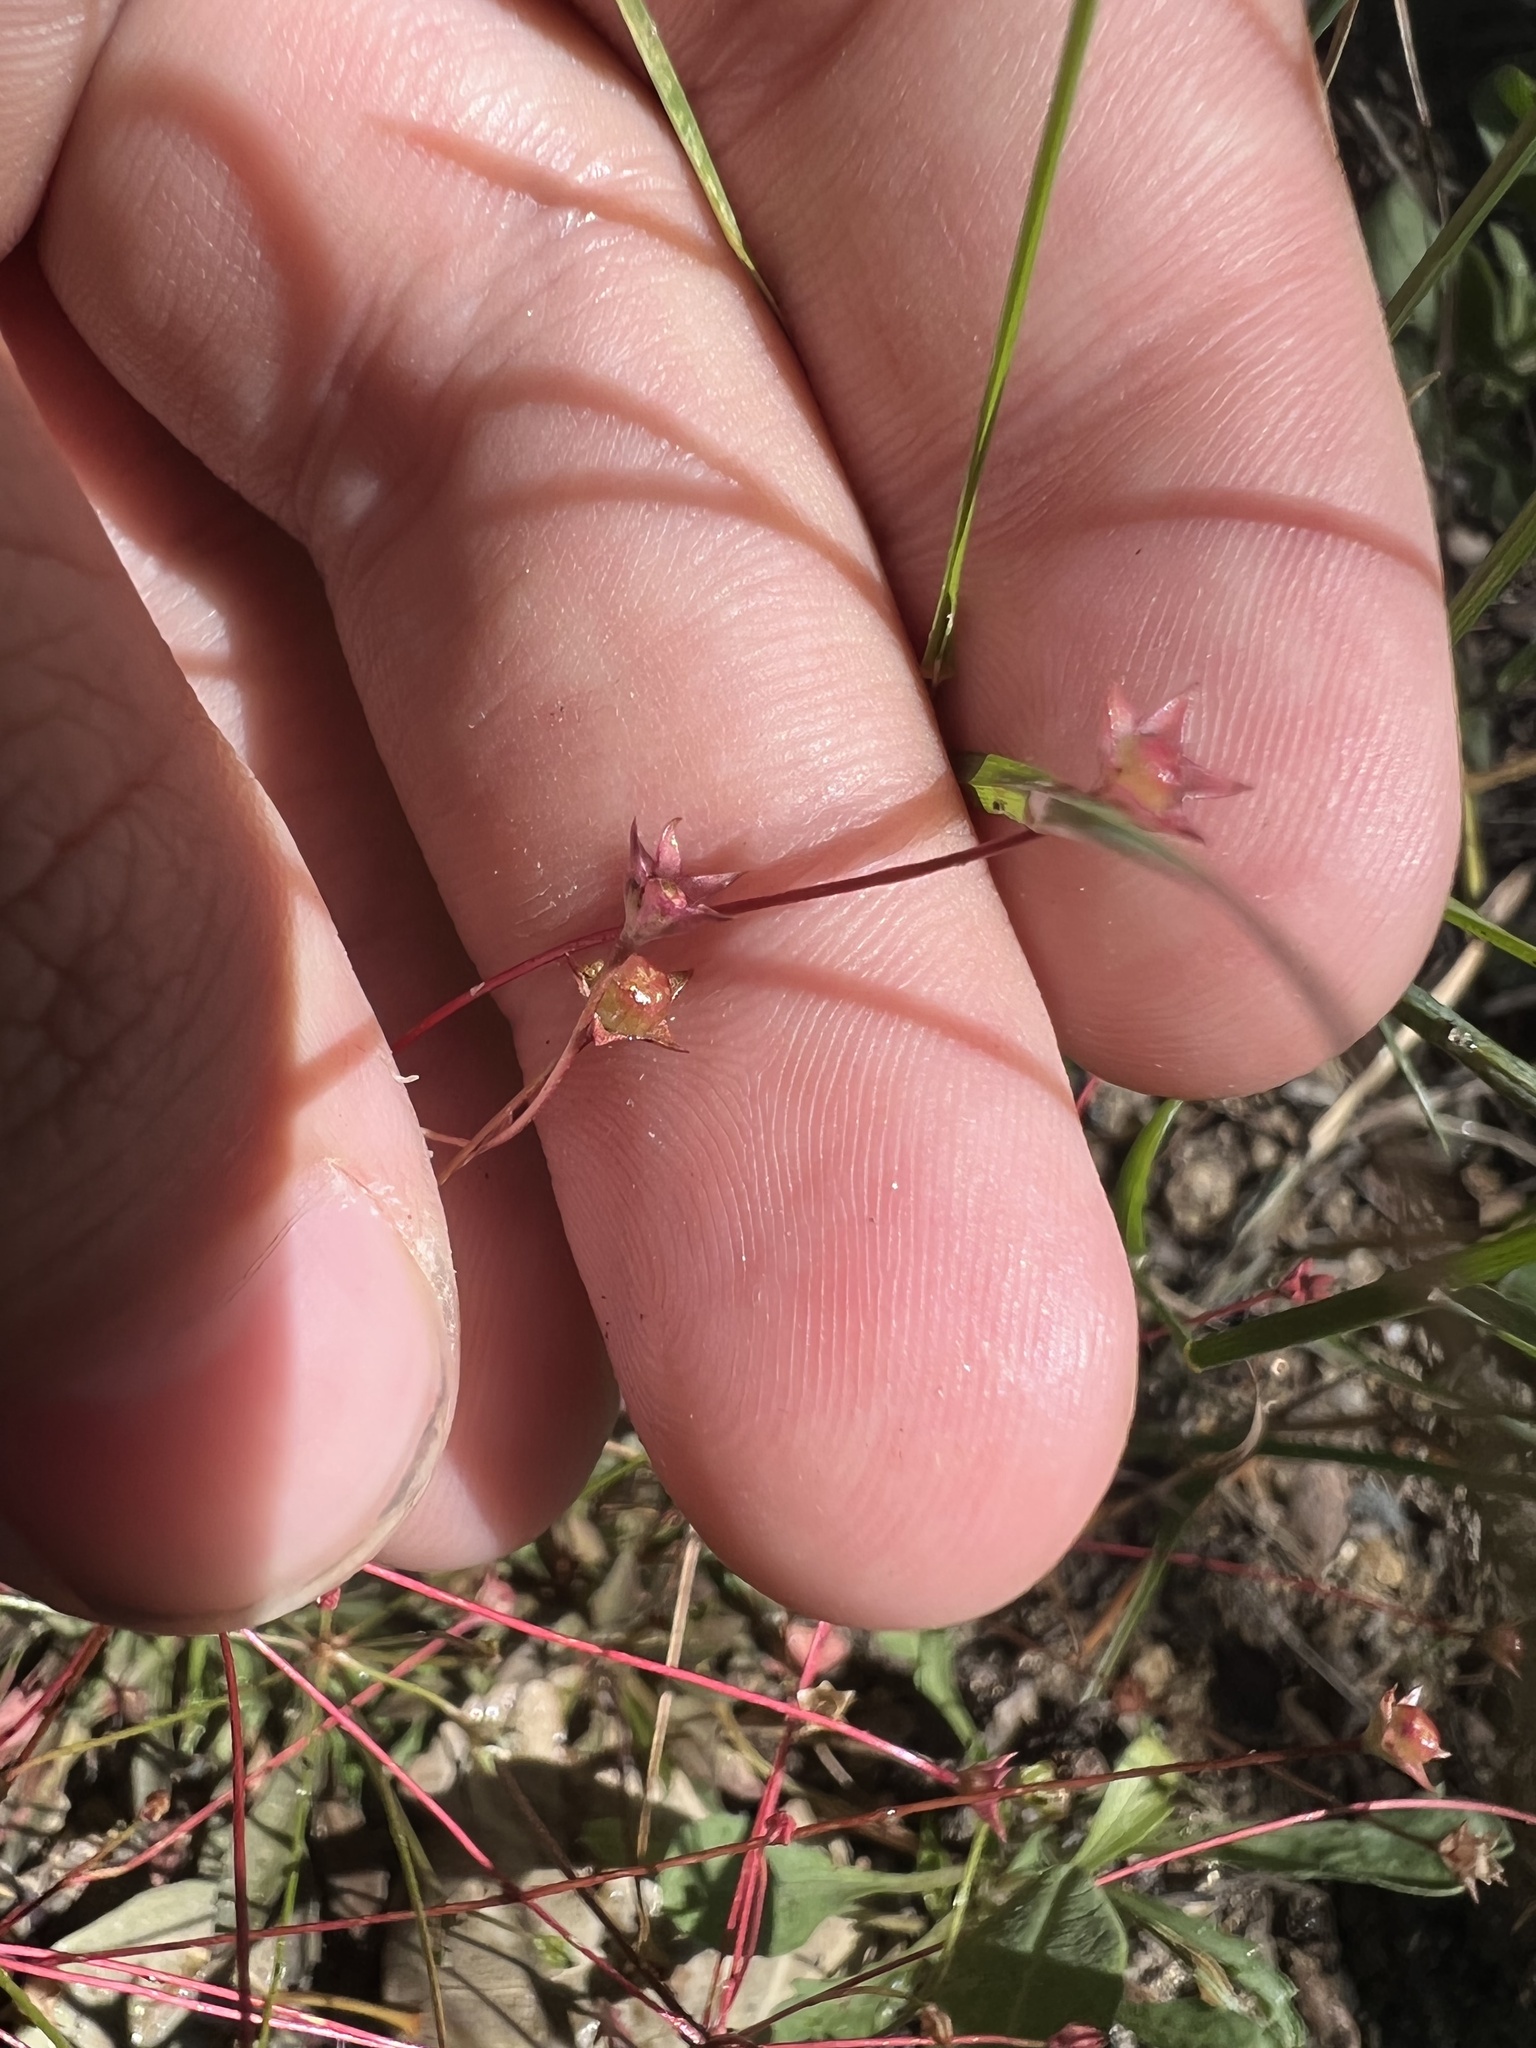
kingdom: Plantae
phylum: Tracheophyta
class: Magnoliopsida
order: Ericales
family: Primulaceae
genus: Androsace
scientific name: Androsace septentrionalis
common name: Hairy northern fairy-candelabra
